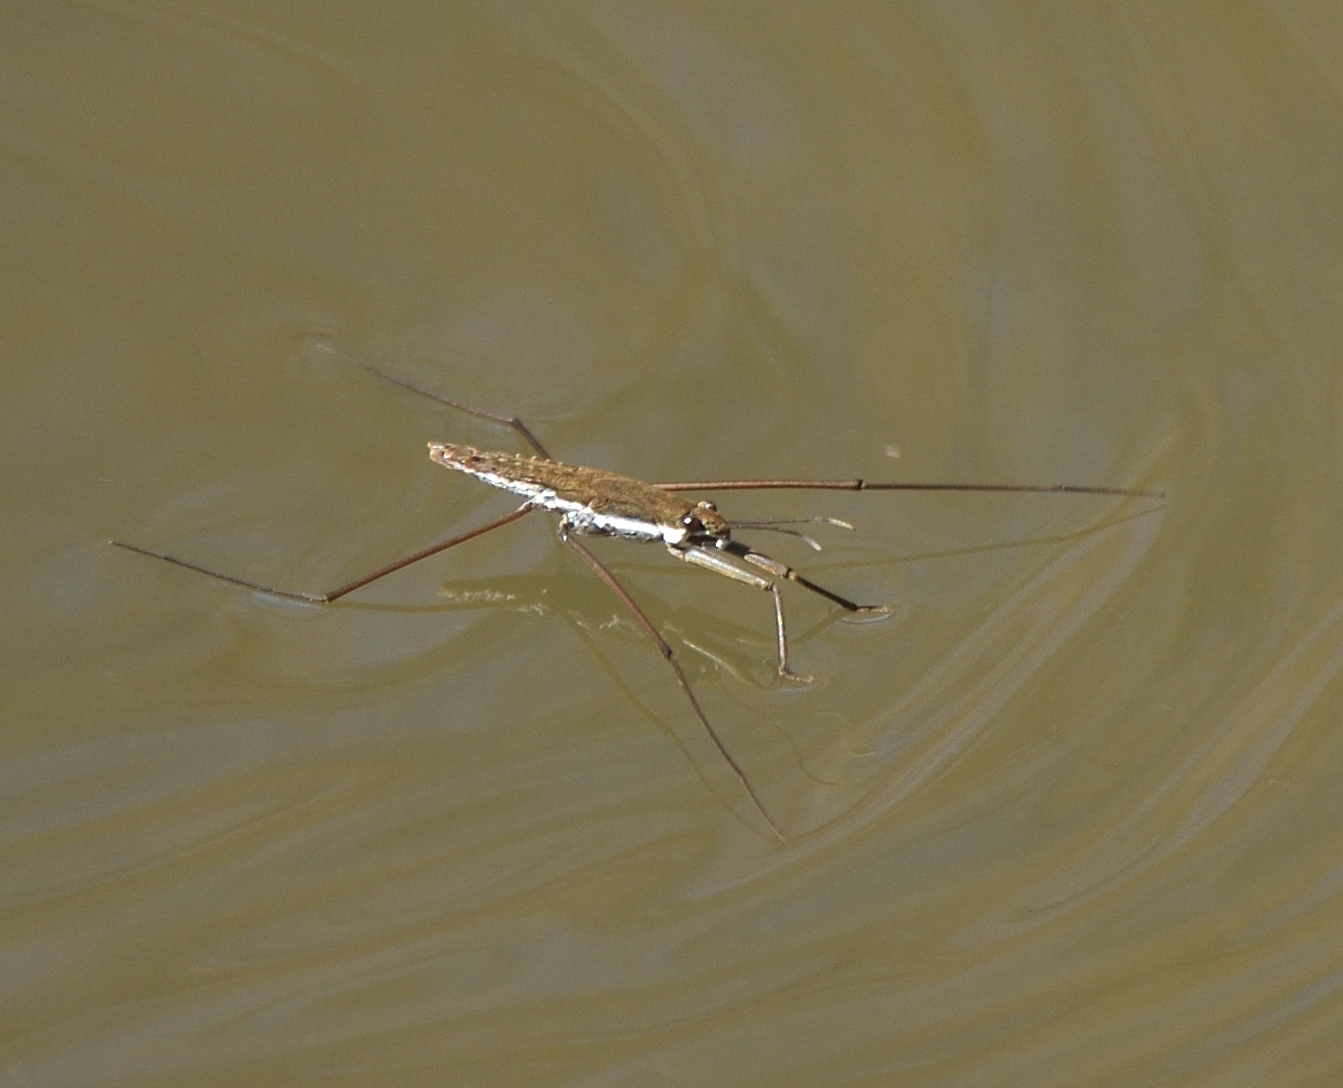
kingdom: Animalia
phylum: Arthropoda
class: Insecta
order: Hemiptera
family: Gerridae
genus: Aquarius
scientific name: Aquarius
